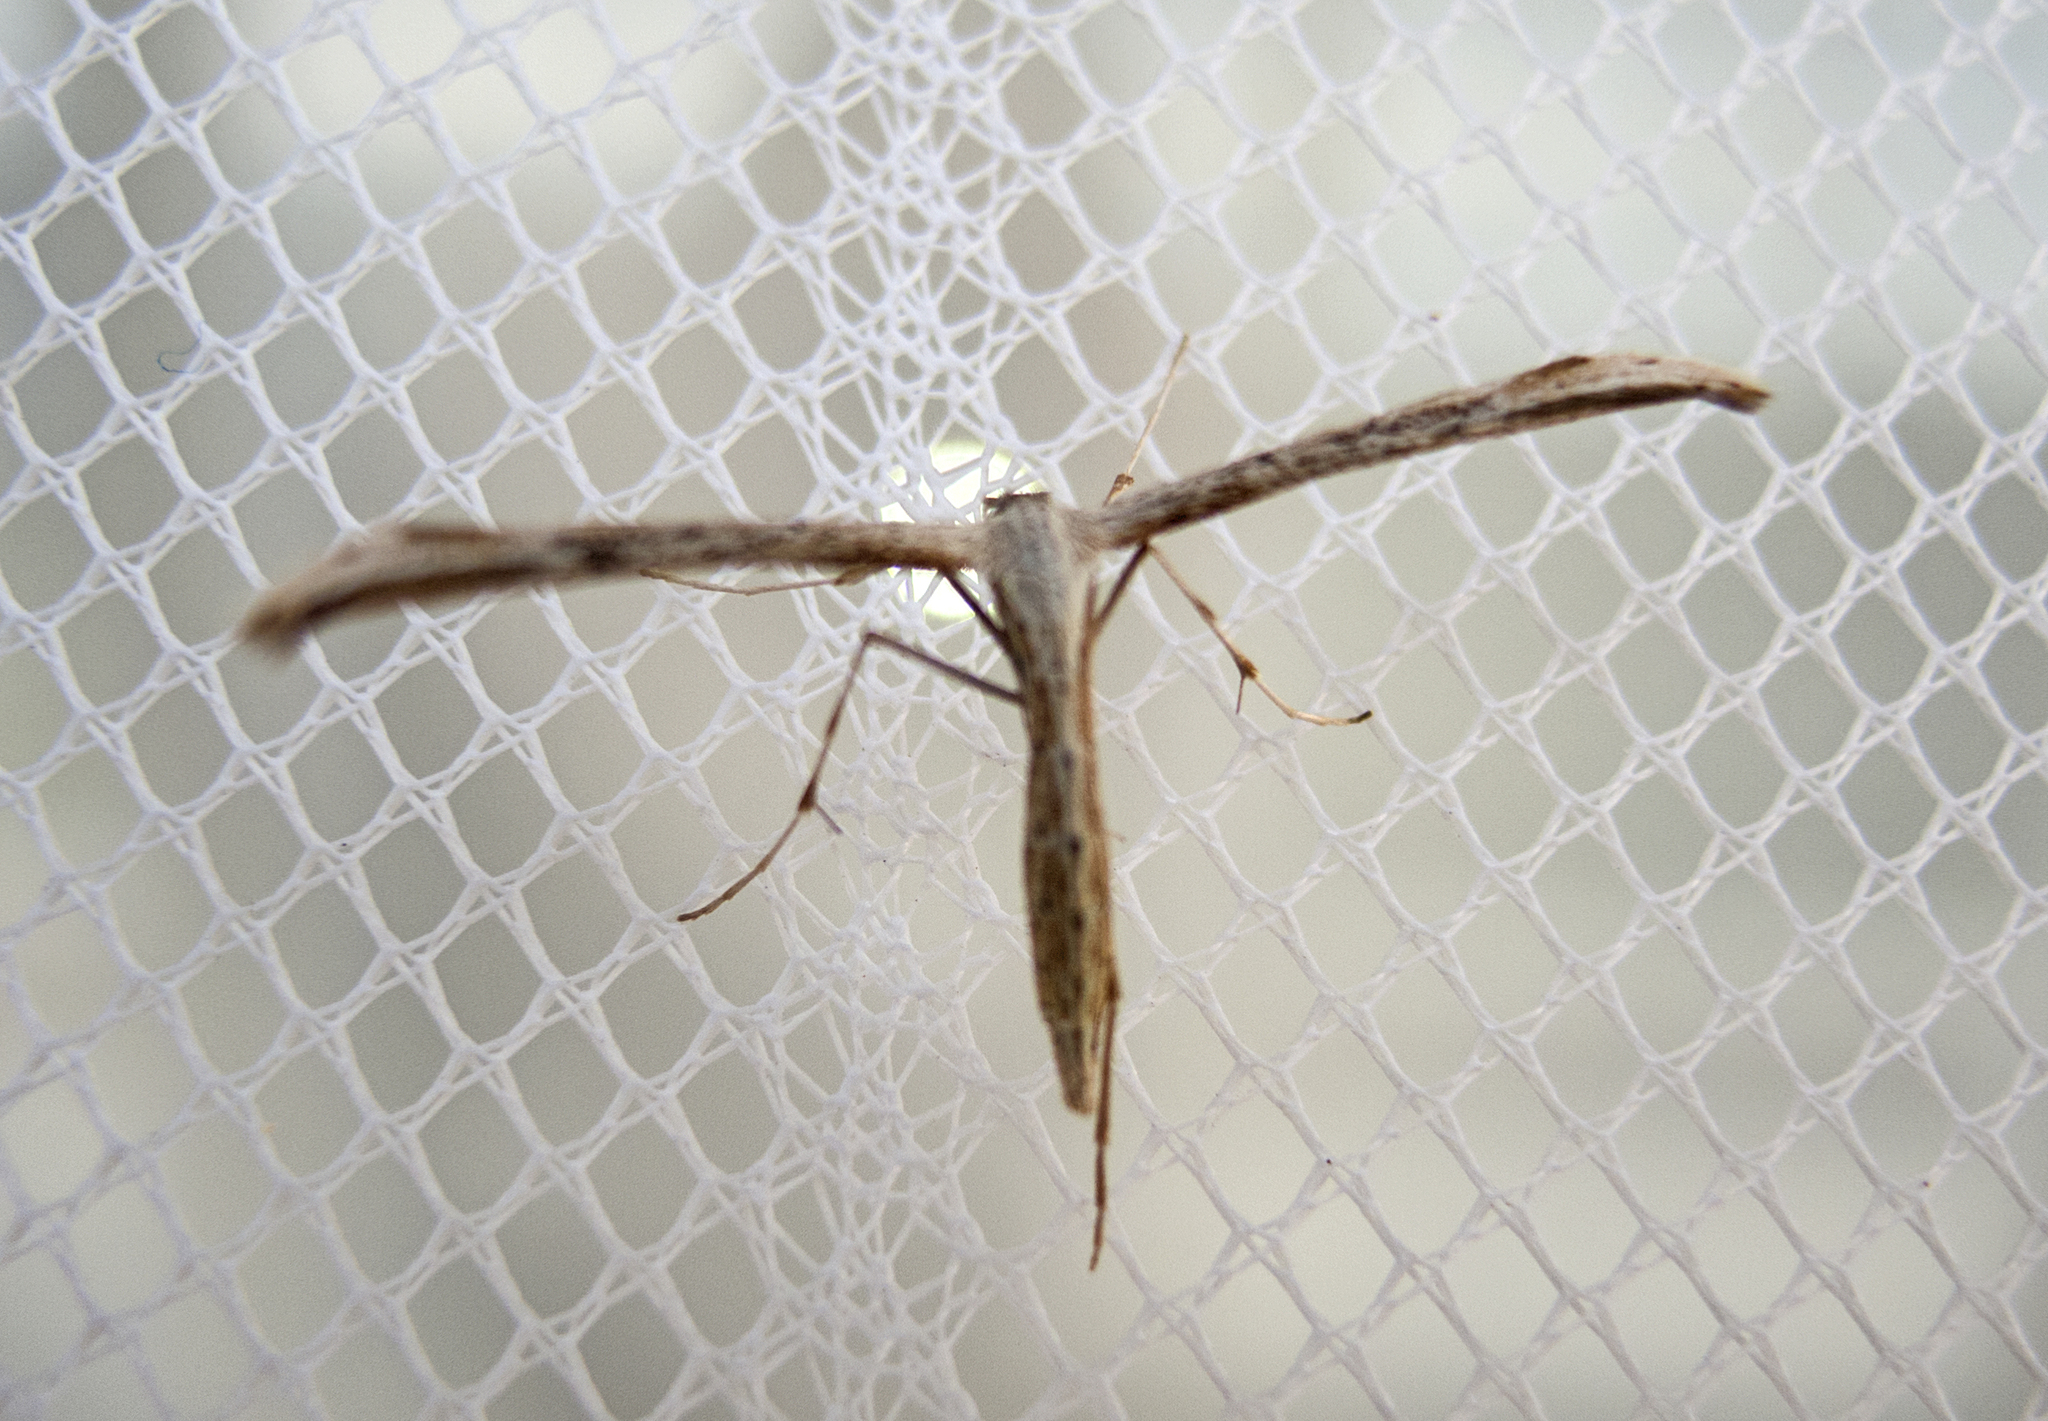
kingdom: Animalia
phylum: Arthropoda
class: Insecta
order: Lepidoptera
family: Pterophoridae
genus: Emmelina
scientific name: Emmelina monodactyla
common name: Common plume
